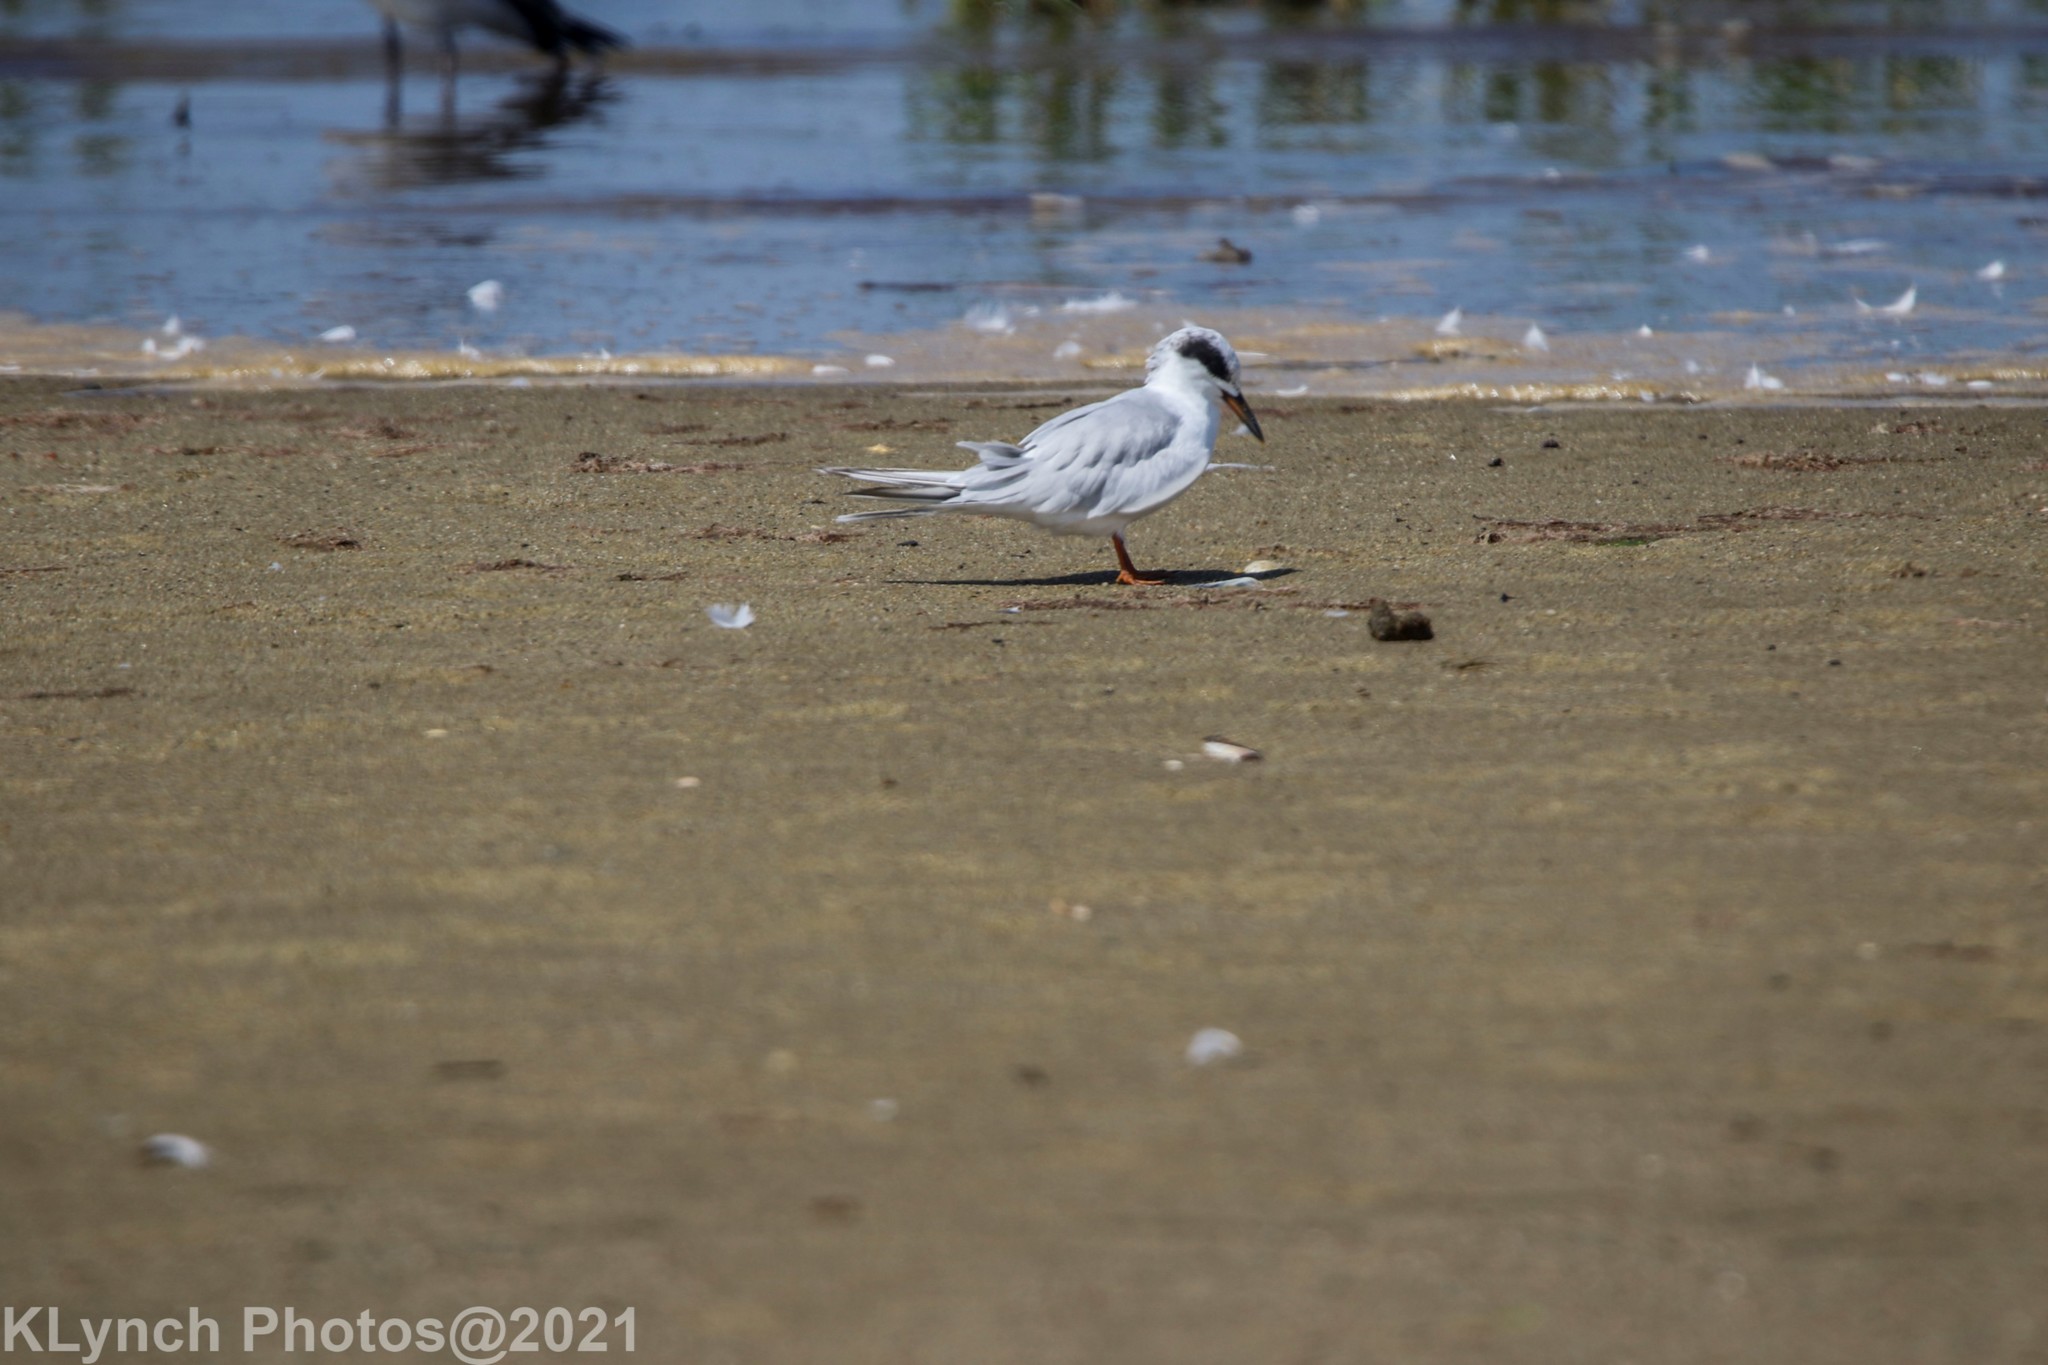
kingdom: Animalia
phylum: Chordata
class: Aves
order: Charadriiformes
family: Laridae
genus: Sterna
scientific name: Sterna forsteri
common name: Forster's tern
